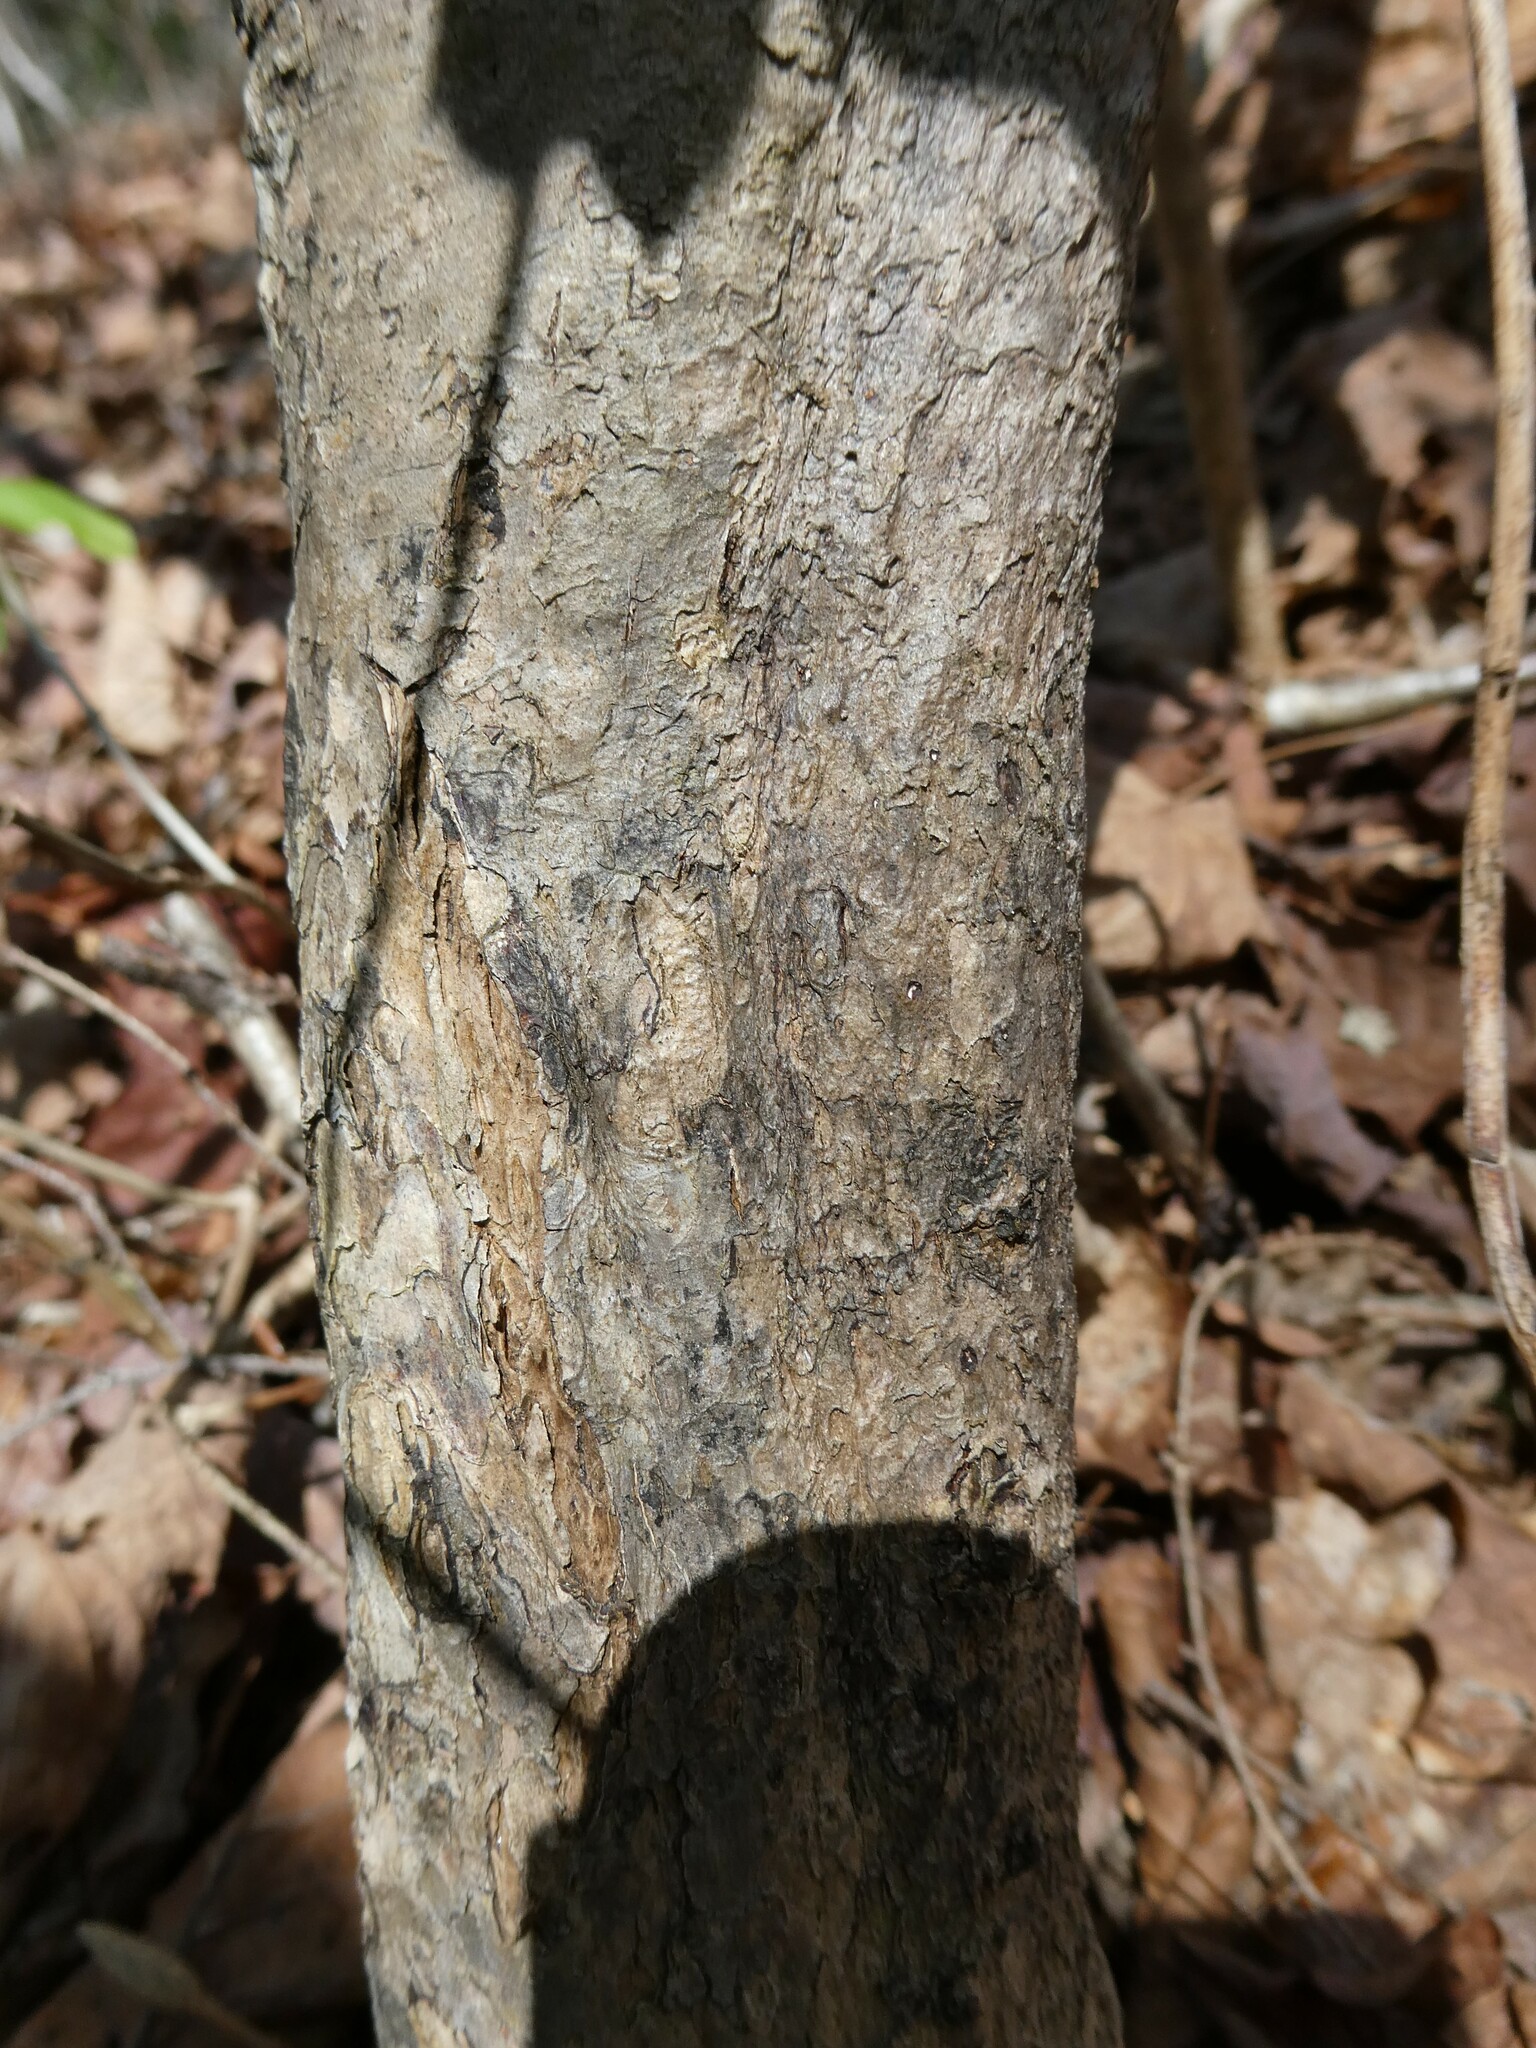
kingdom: Plantae
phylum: Tracheophyta
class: Magnoliopsida
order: Dipsacales
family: Caprifoliaceae
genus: Lonicera
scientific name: Lonicera canadensis
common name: American fly-honeysuckle
